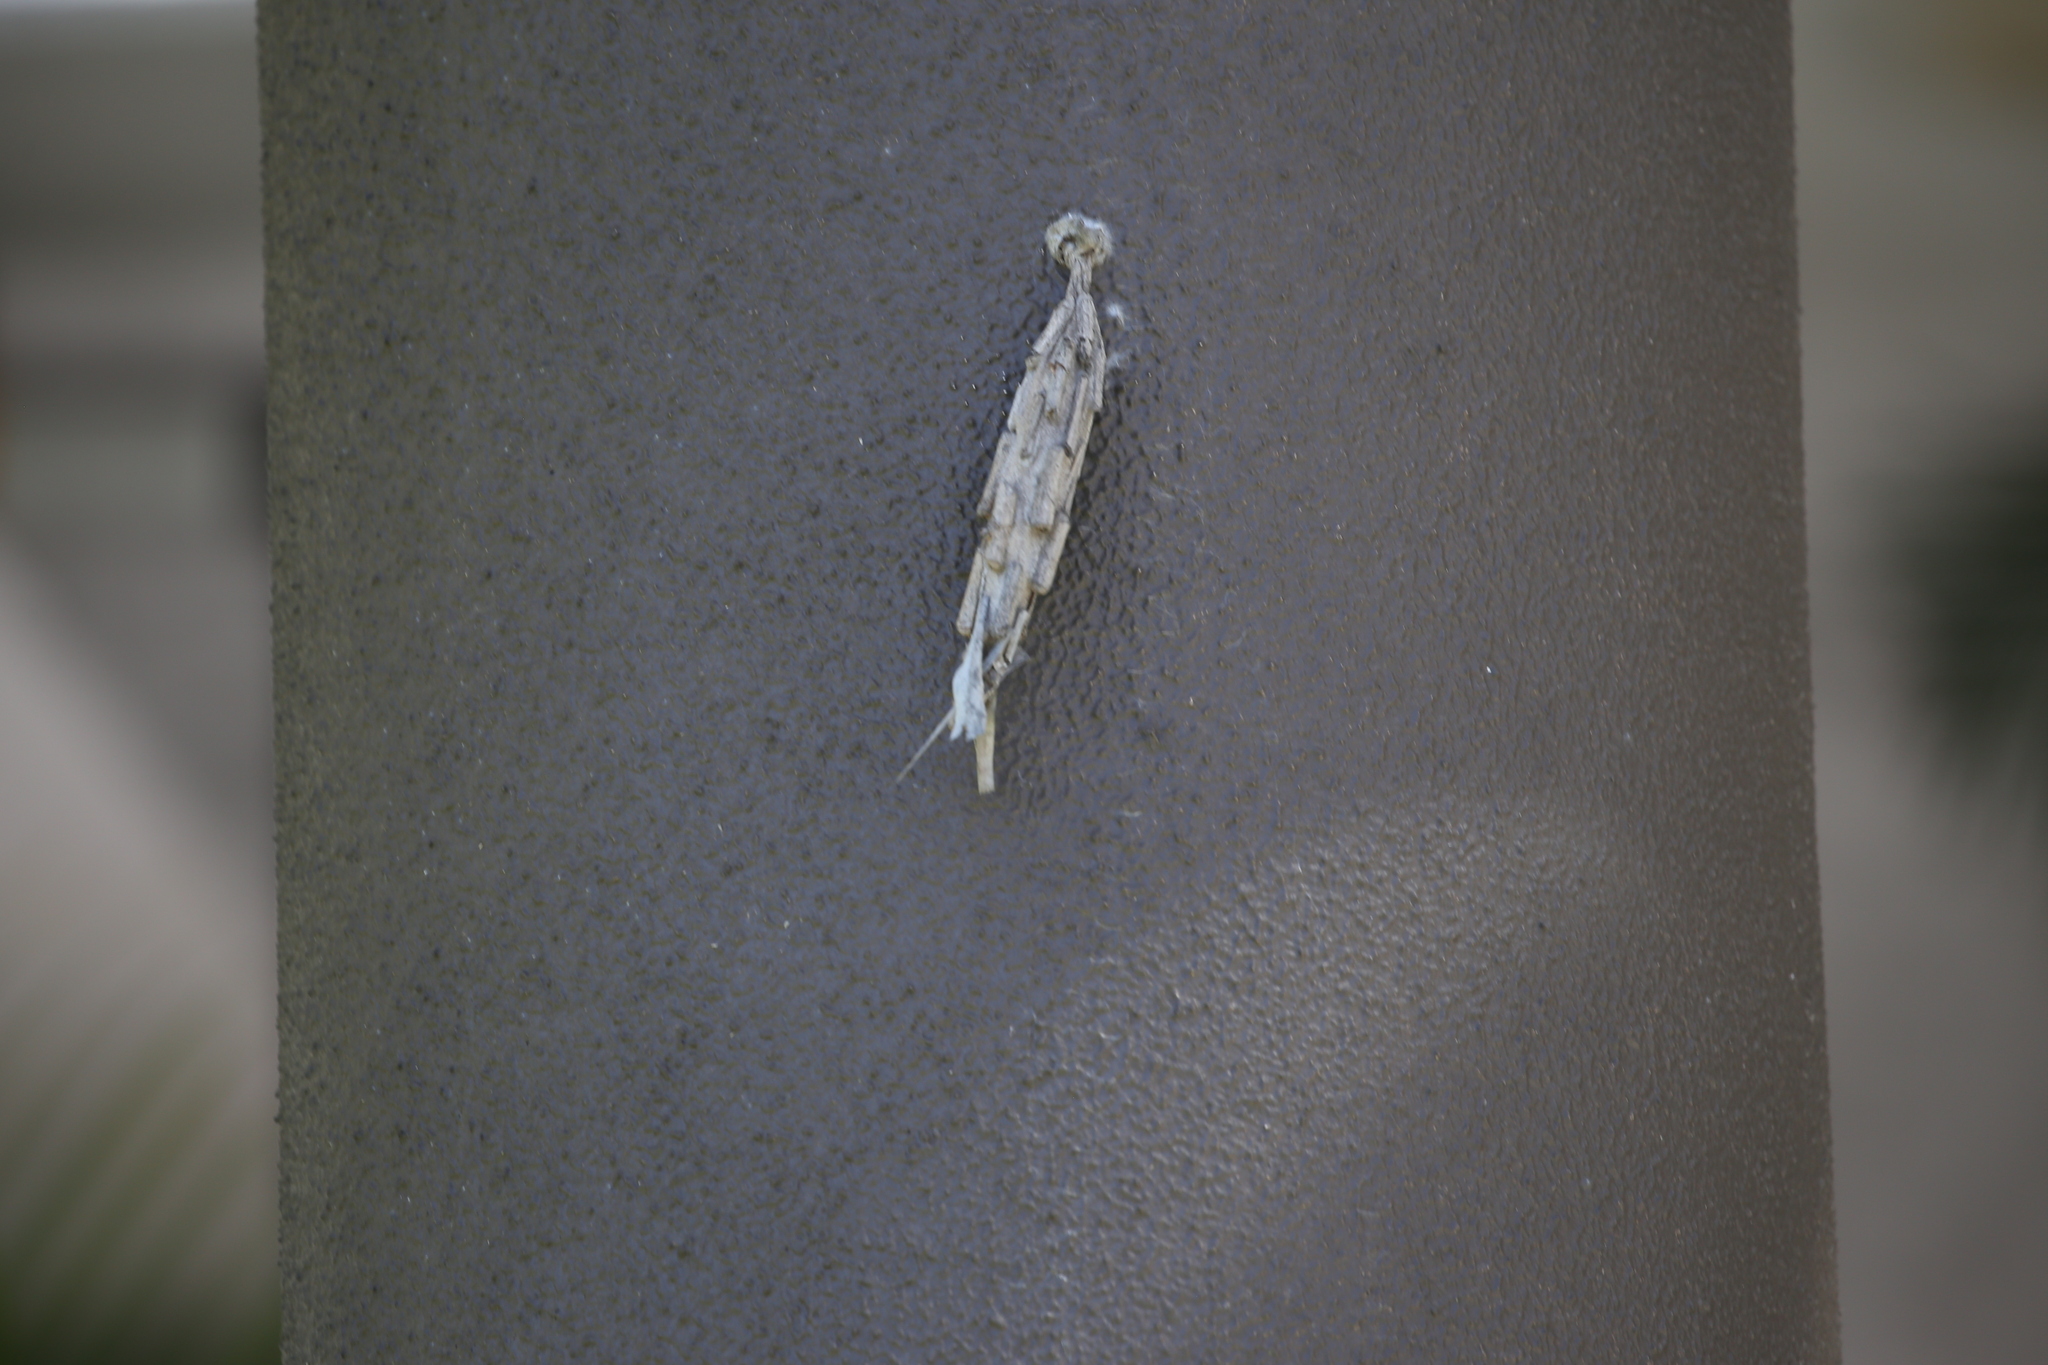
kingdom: Animalia
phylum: Arthropoda
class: Insecta
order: Lepidoptera
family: Psychidae
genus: Metura
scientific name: Metura elongatus
